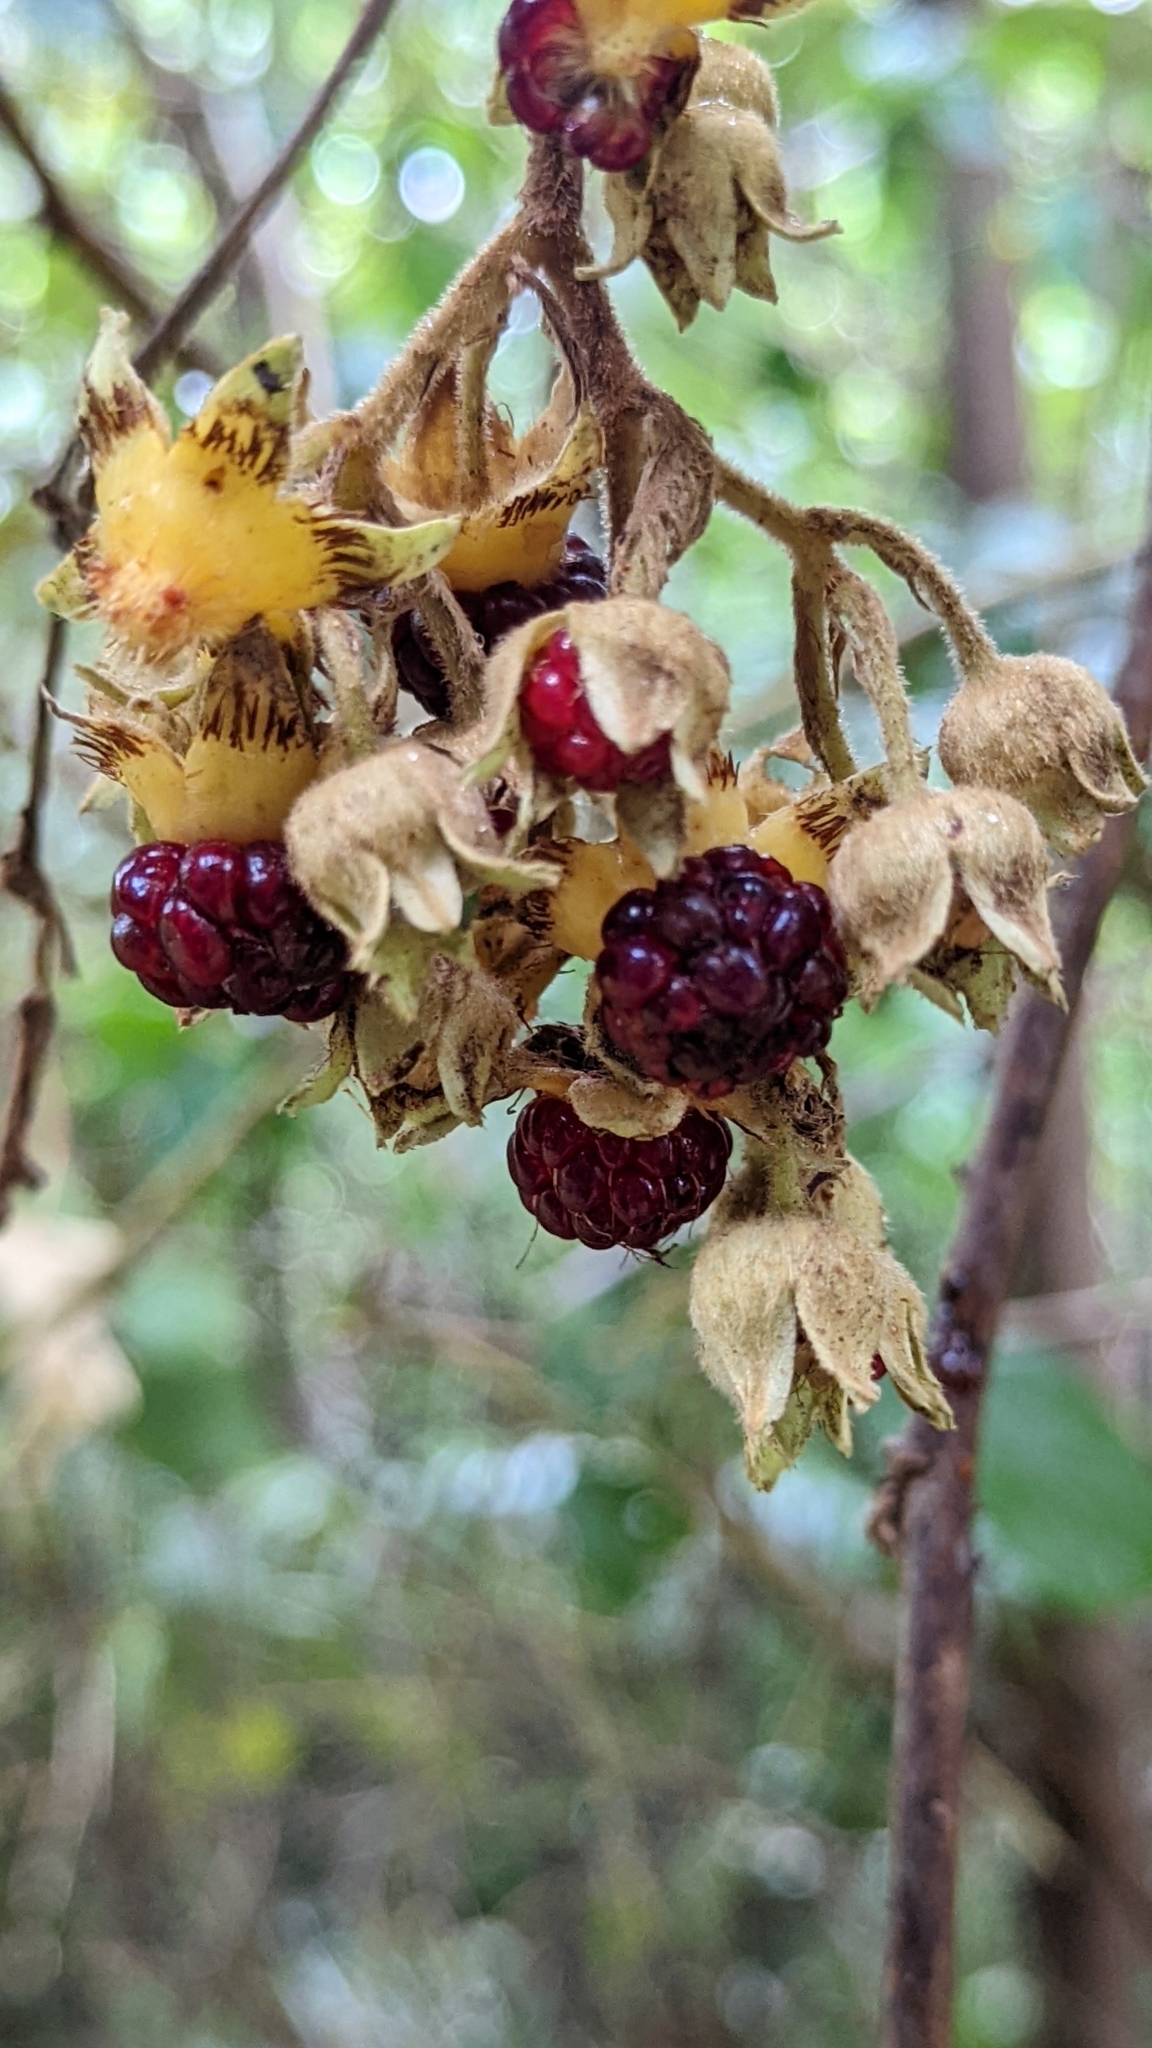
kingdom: Plantae
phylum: Tracheophyta
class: Magnoliopsida
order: Rosales
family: Rosaceae
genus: Rubus
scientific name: Rubus glomeratus
